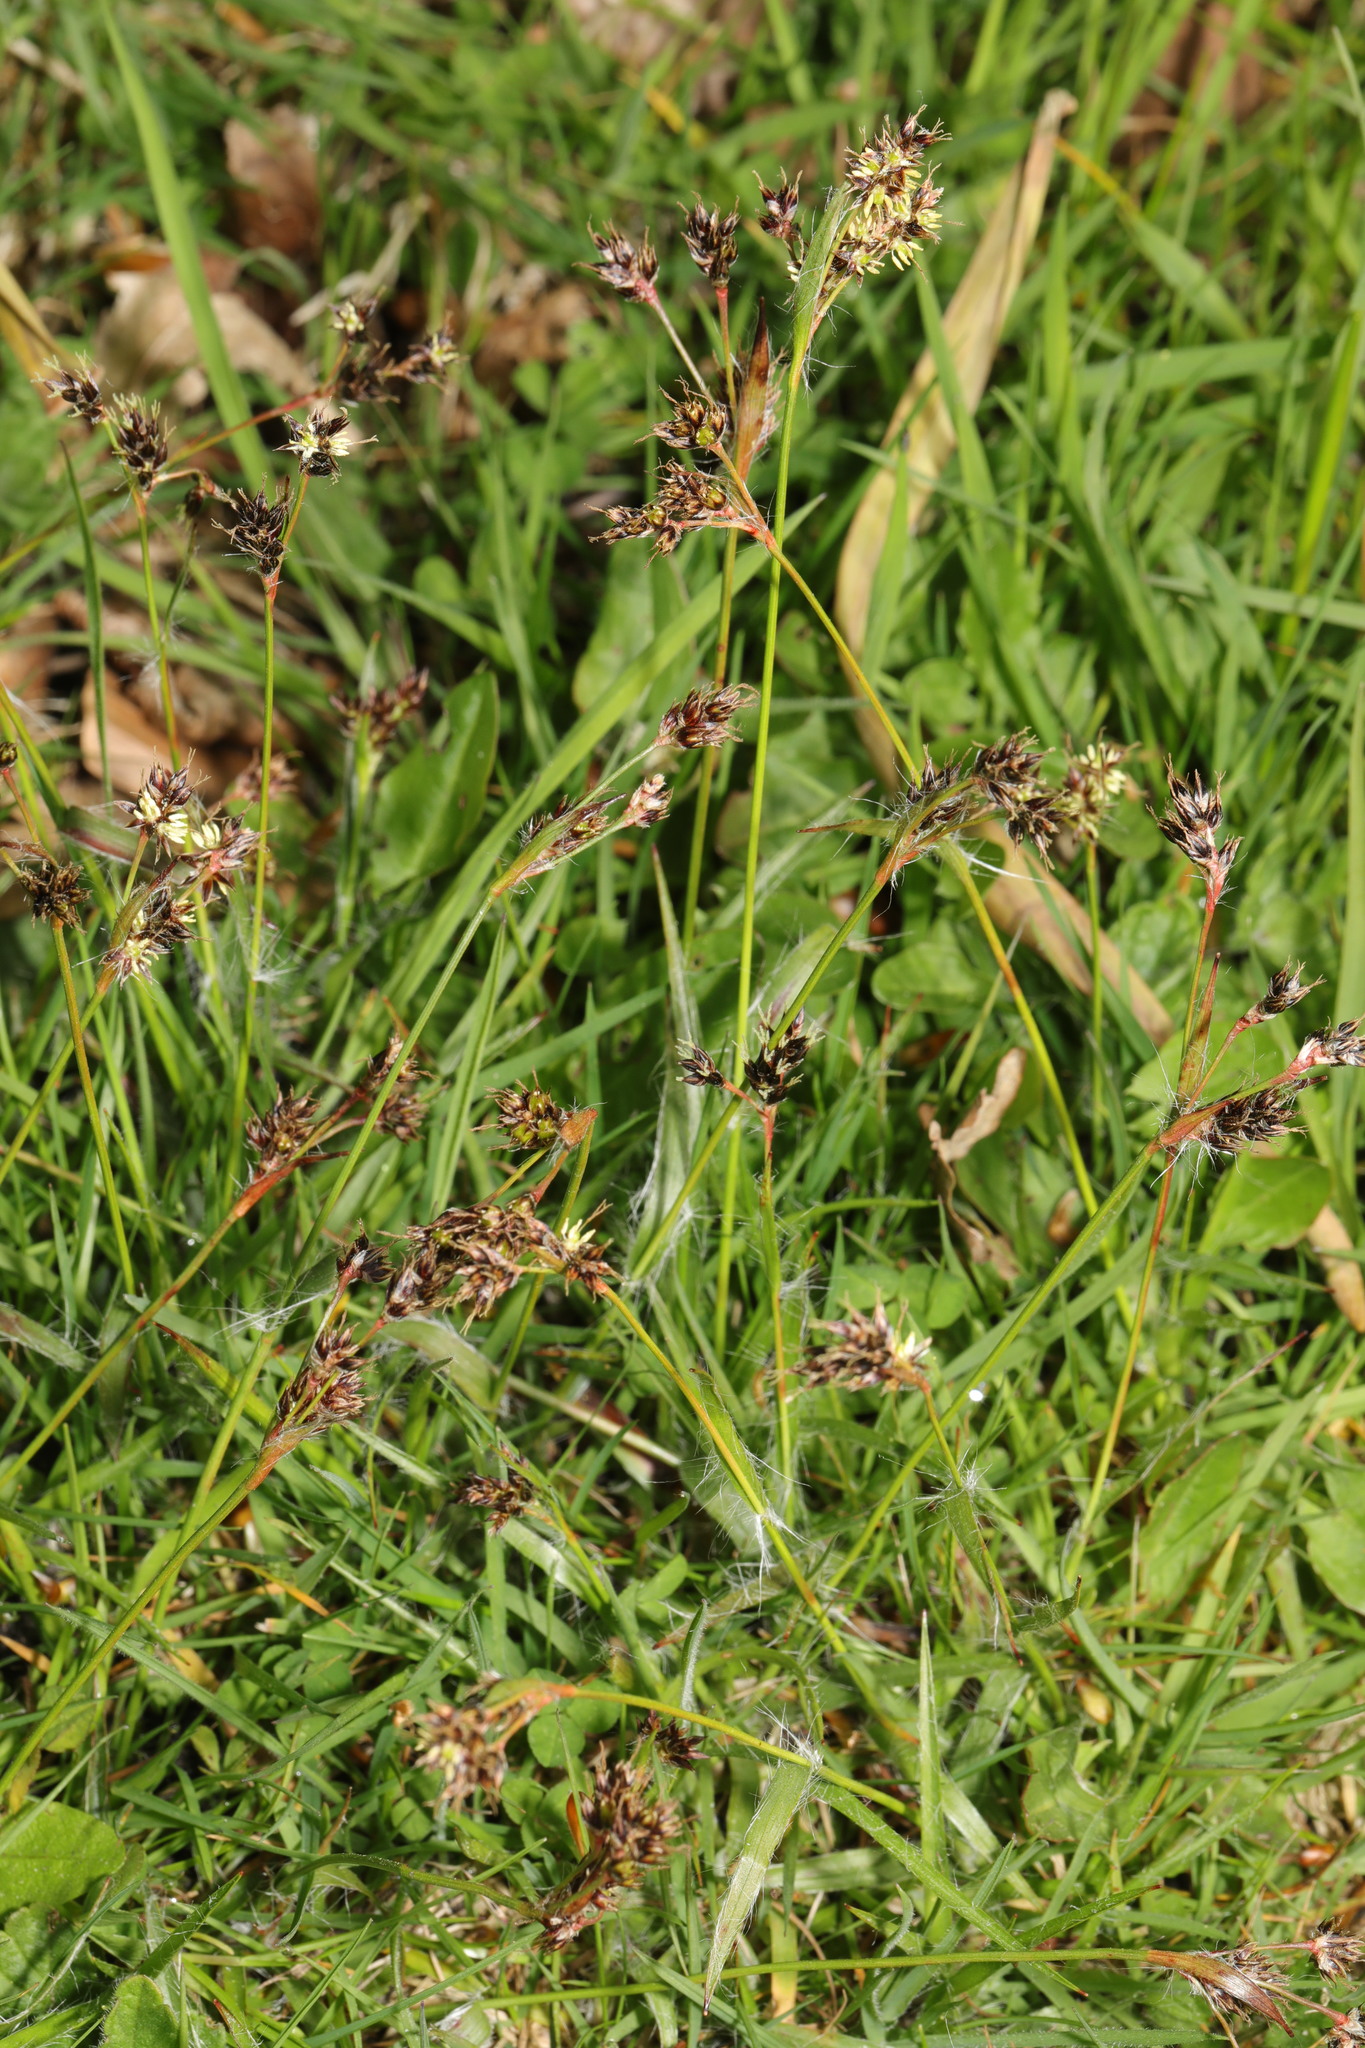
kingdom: Plantae
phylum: Tracheophyta
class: Liliopsida
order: Poales
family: Juncaceae
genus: Luzula
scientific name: Luzula campestris
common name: Field wood-rush
